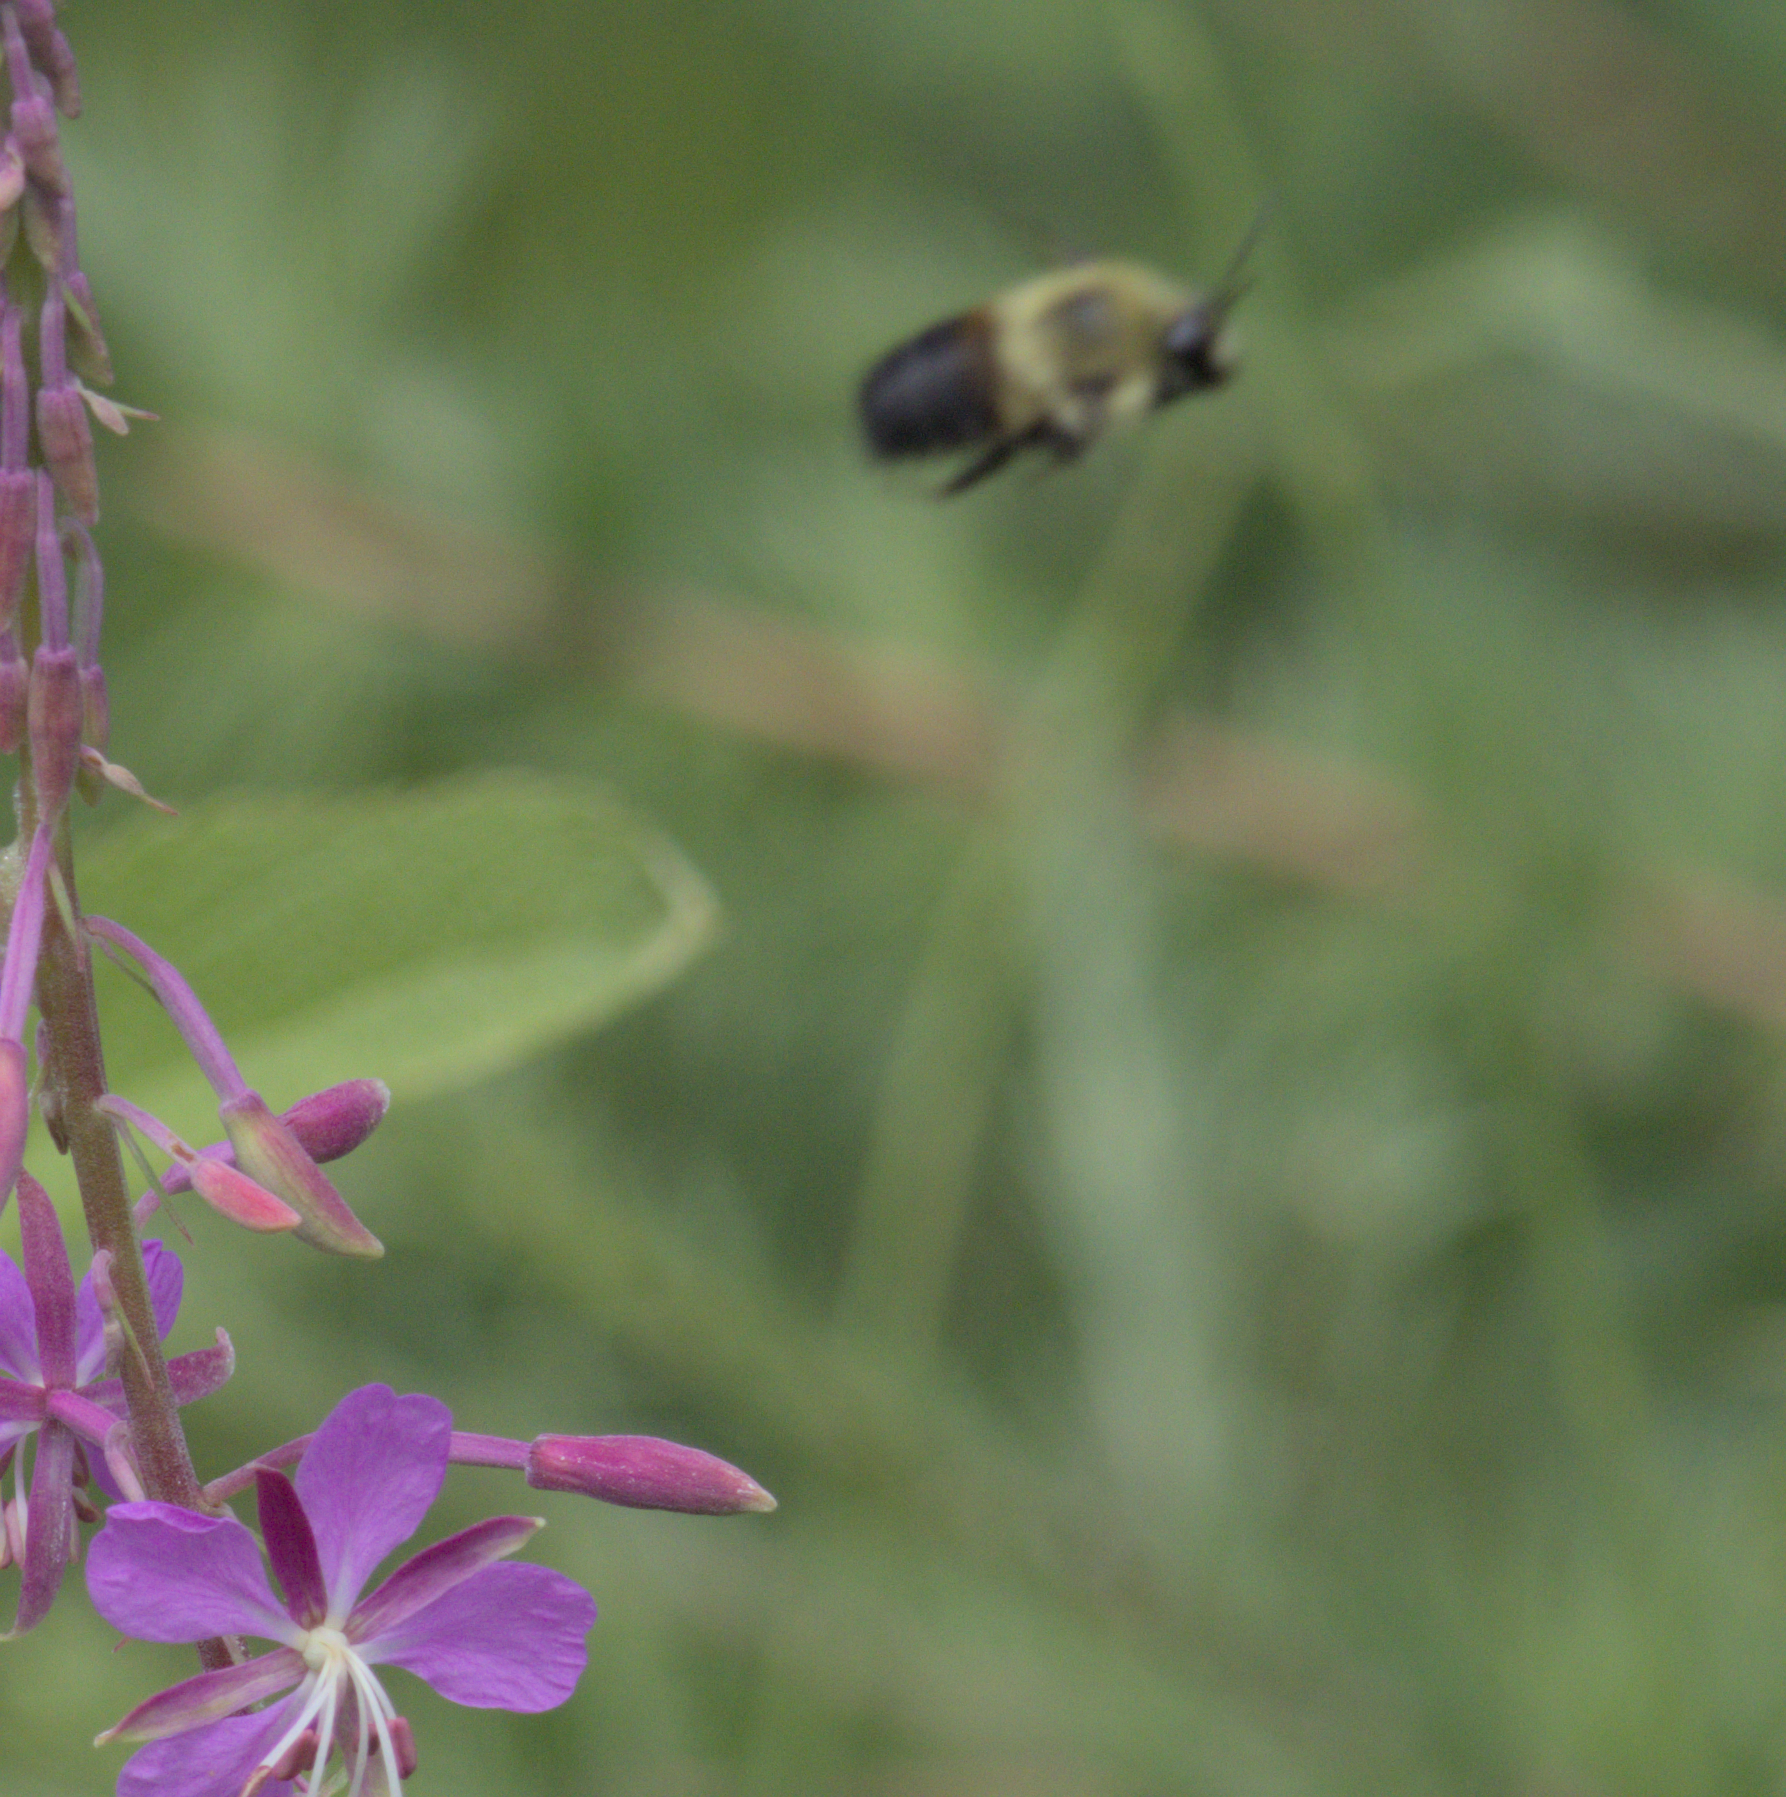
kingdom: Animalia
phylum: Arthropoda
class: Insecta
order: Hymenoptera
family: Apidae
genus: Bombus
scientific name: Bombus griseocollis
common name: Brown-belted bumble bee
